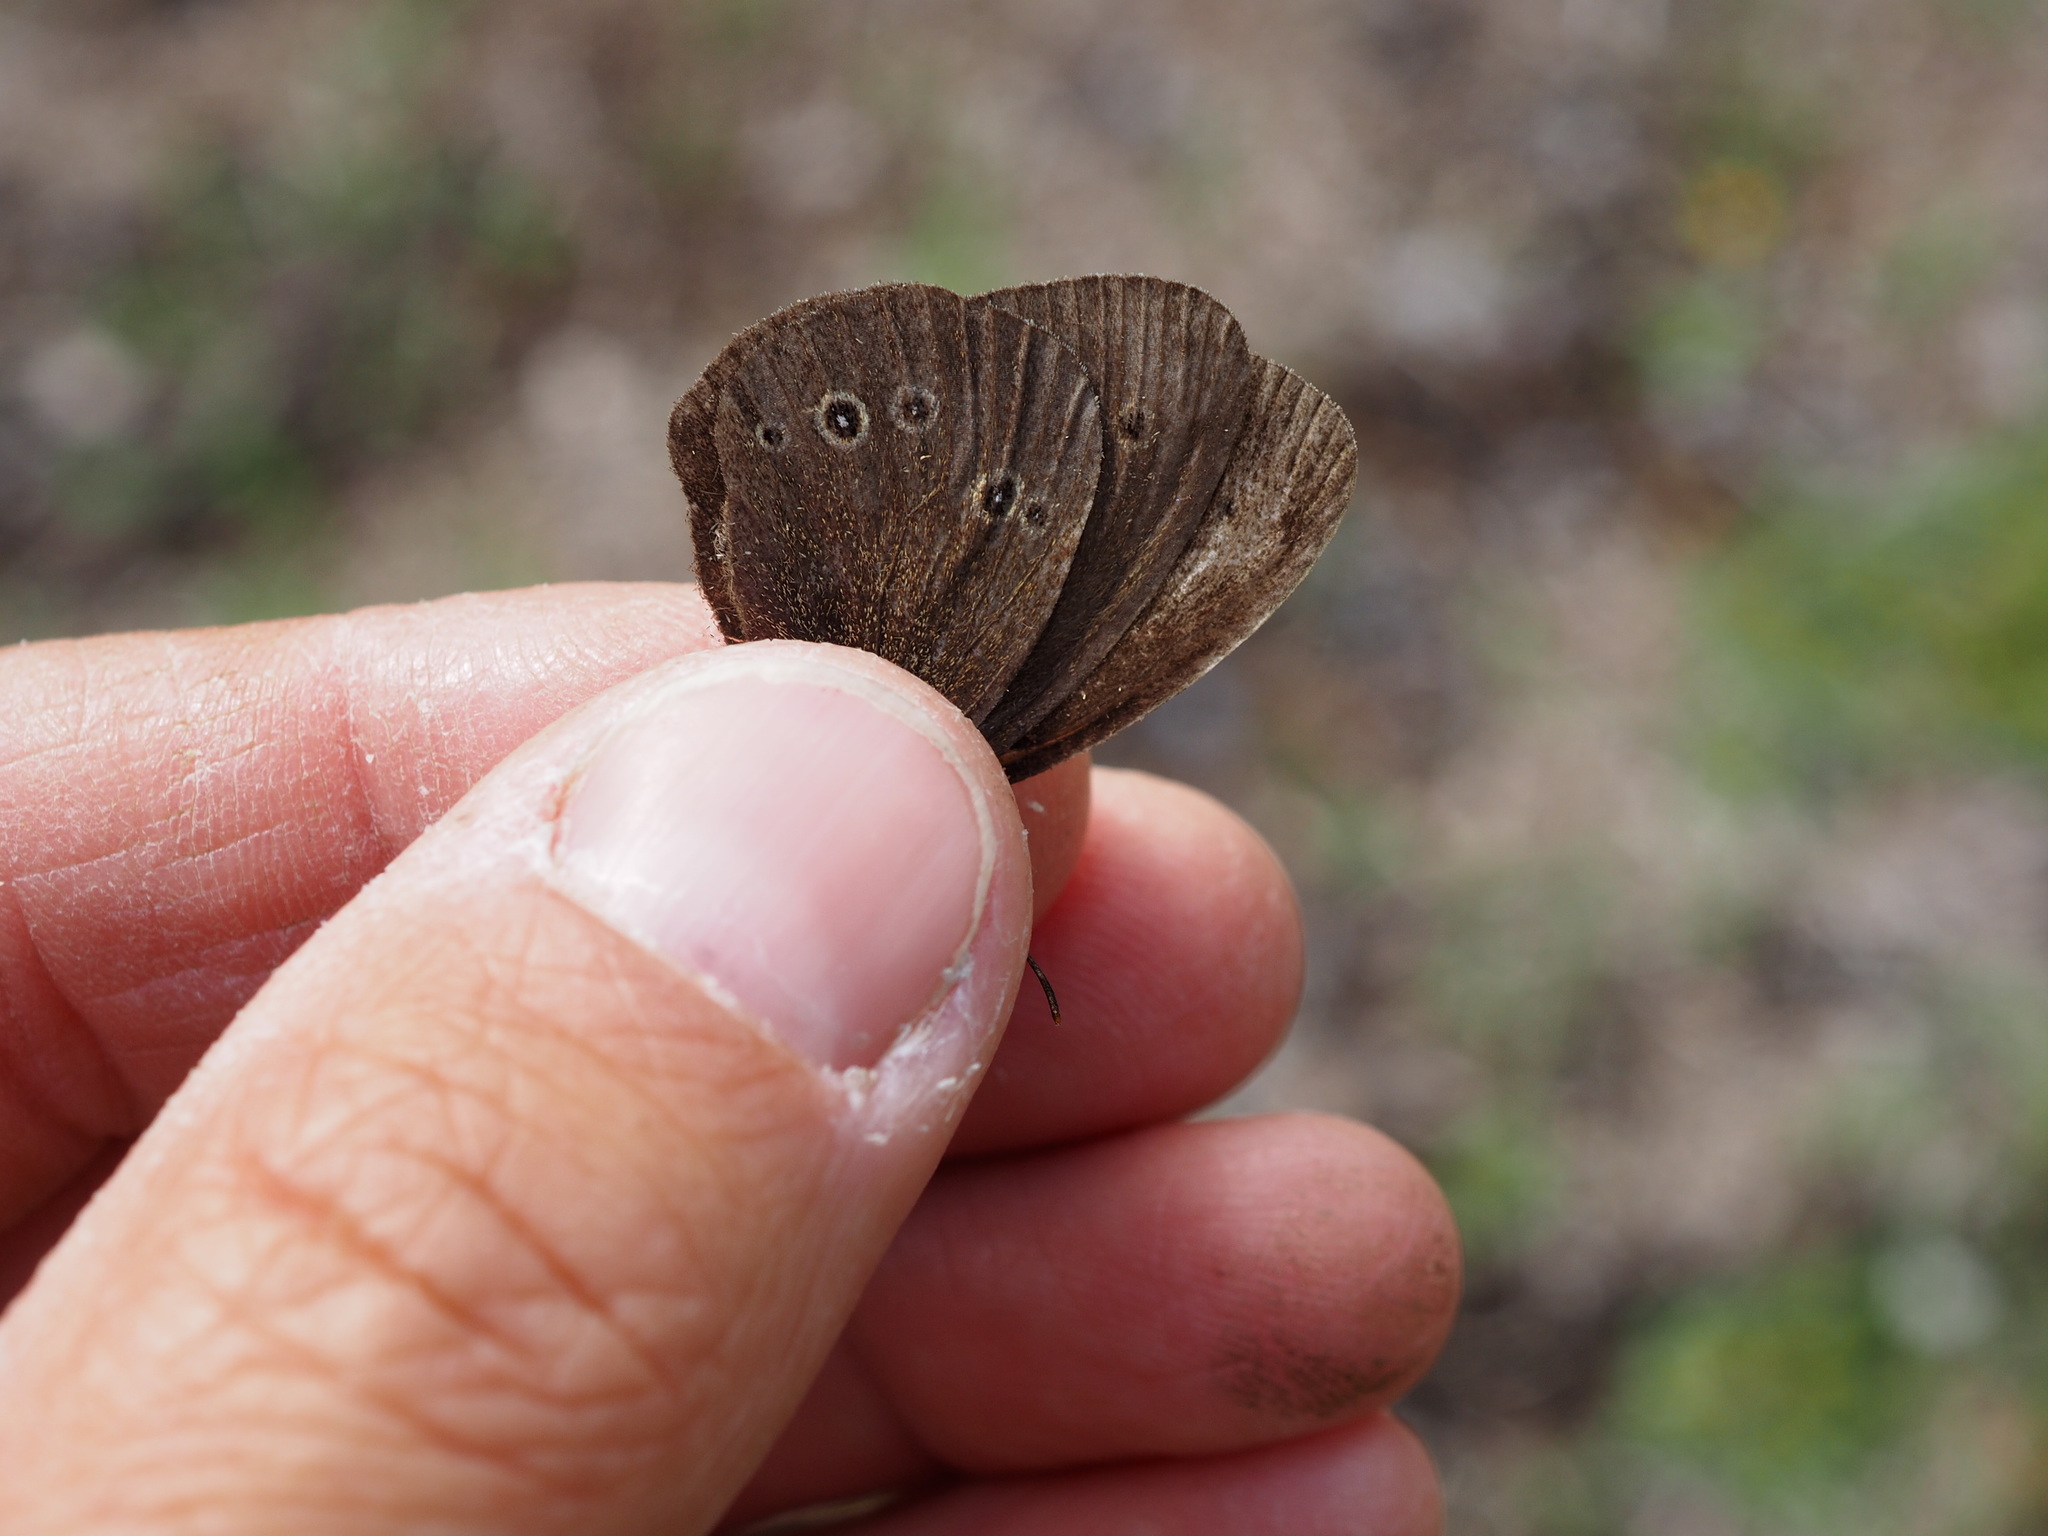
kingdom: Animalia
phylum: Arthropoda
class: Insecta
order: Lepidoptera
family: Nymphalidae
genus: Aphantopus
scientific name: Aphantopus hyperantus
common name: Ringlet
